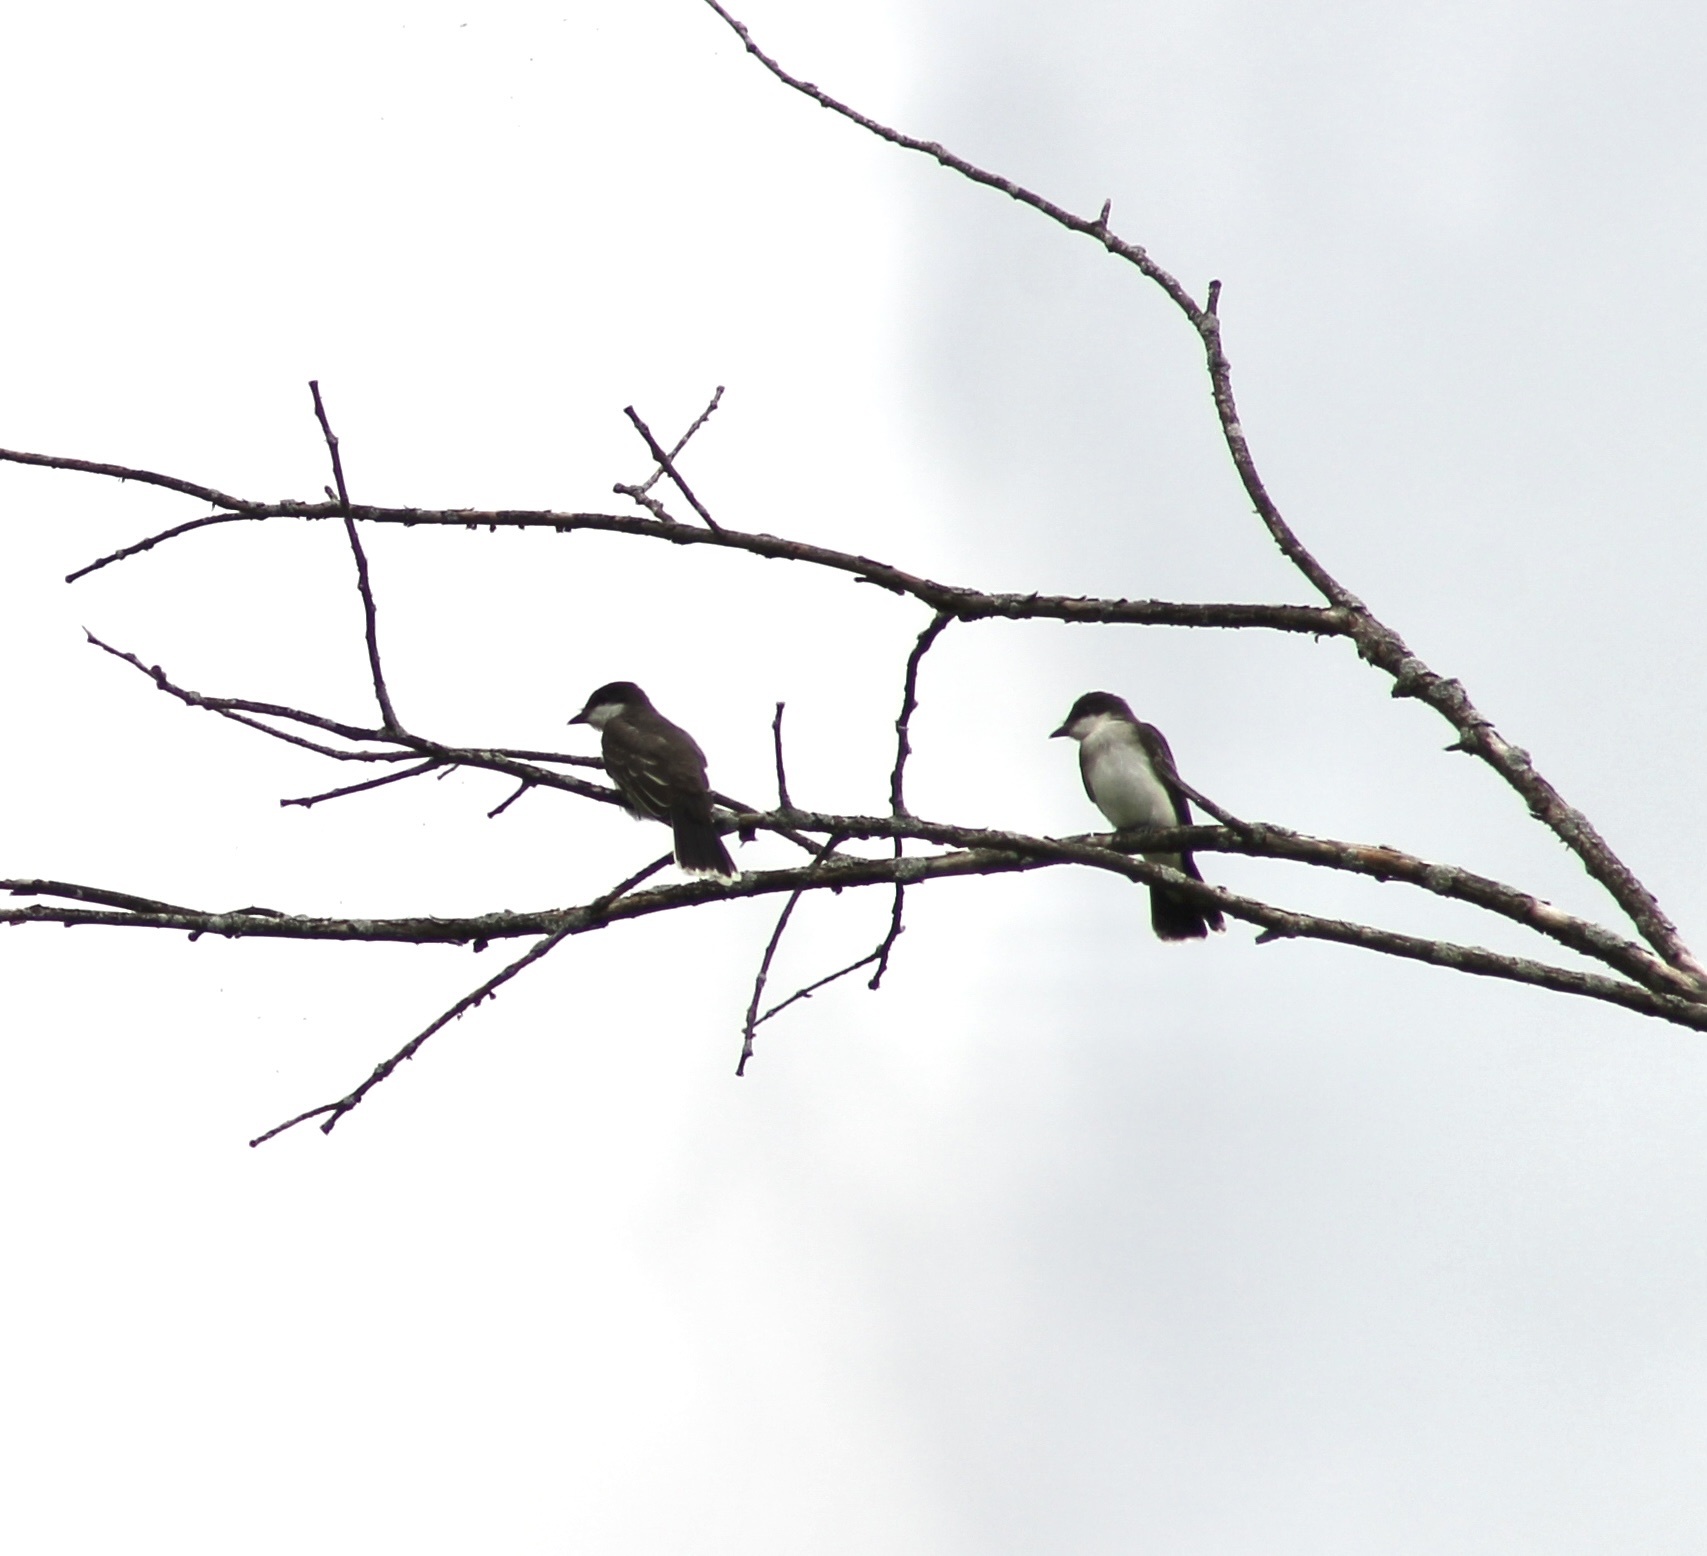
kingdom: Animalia
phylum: Chordata
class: Aves
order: Passeriformes
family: Tyrannidae
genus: Tyrannus
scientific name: Tyrannus tyrannus
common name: Eastern kingbird
